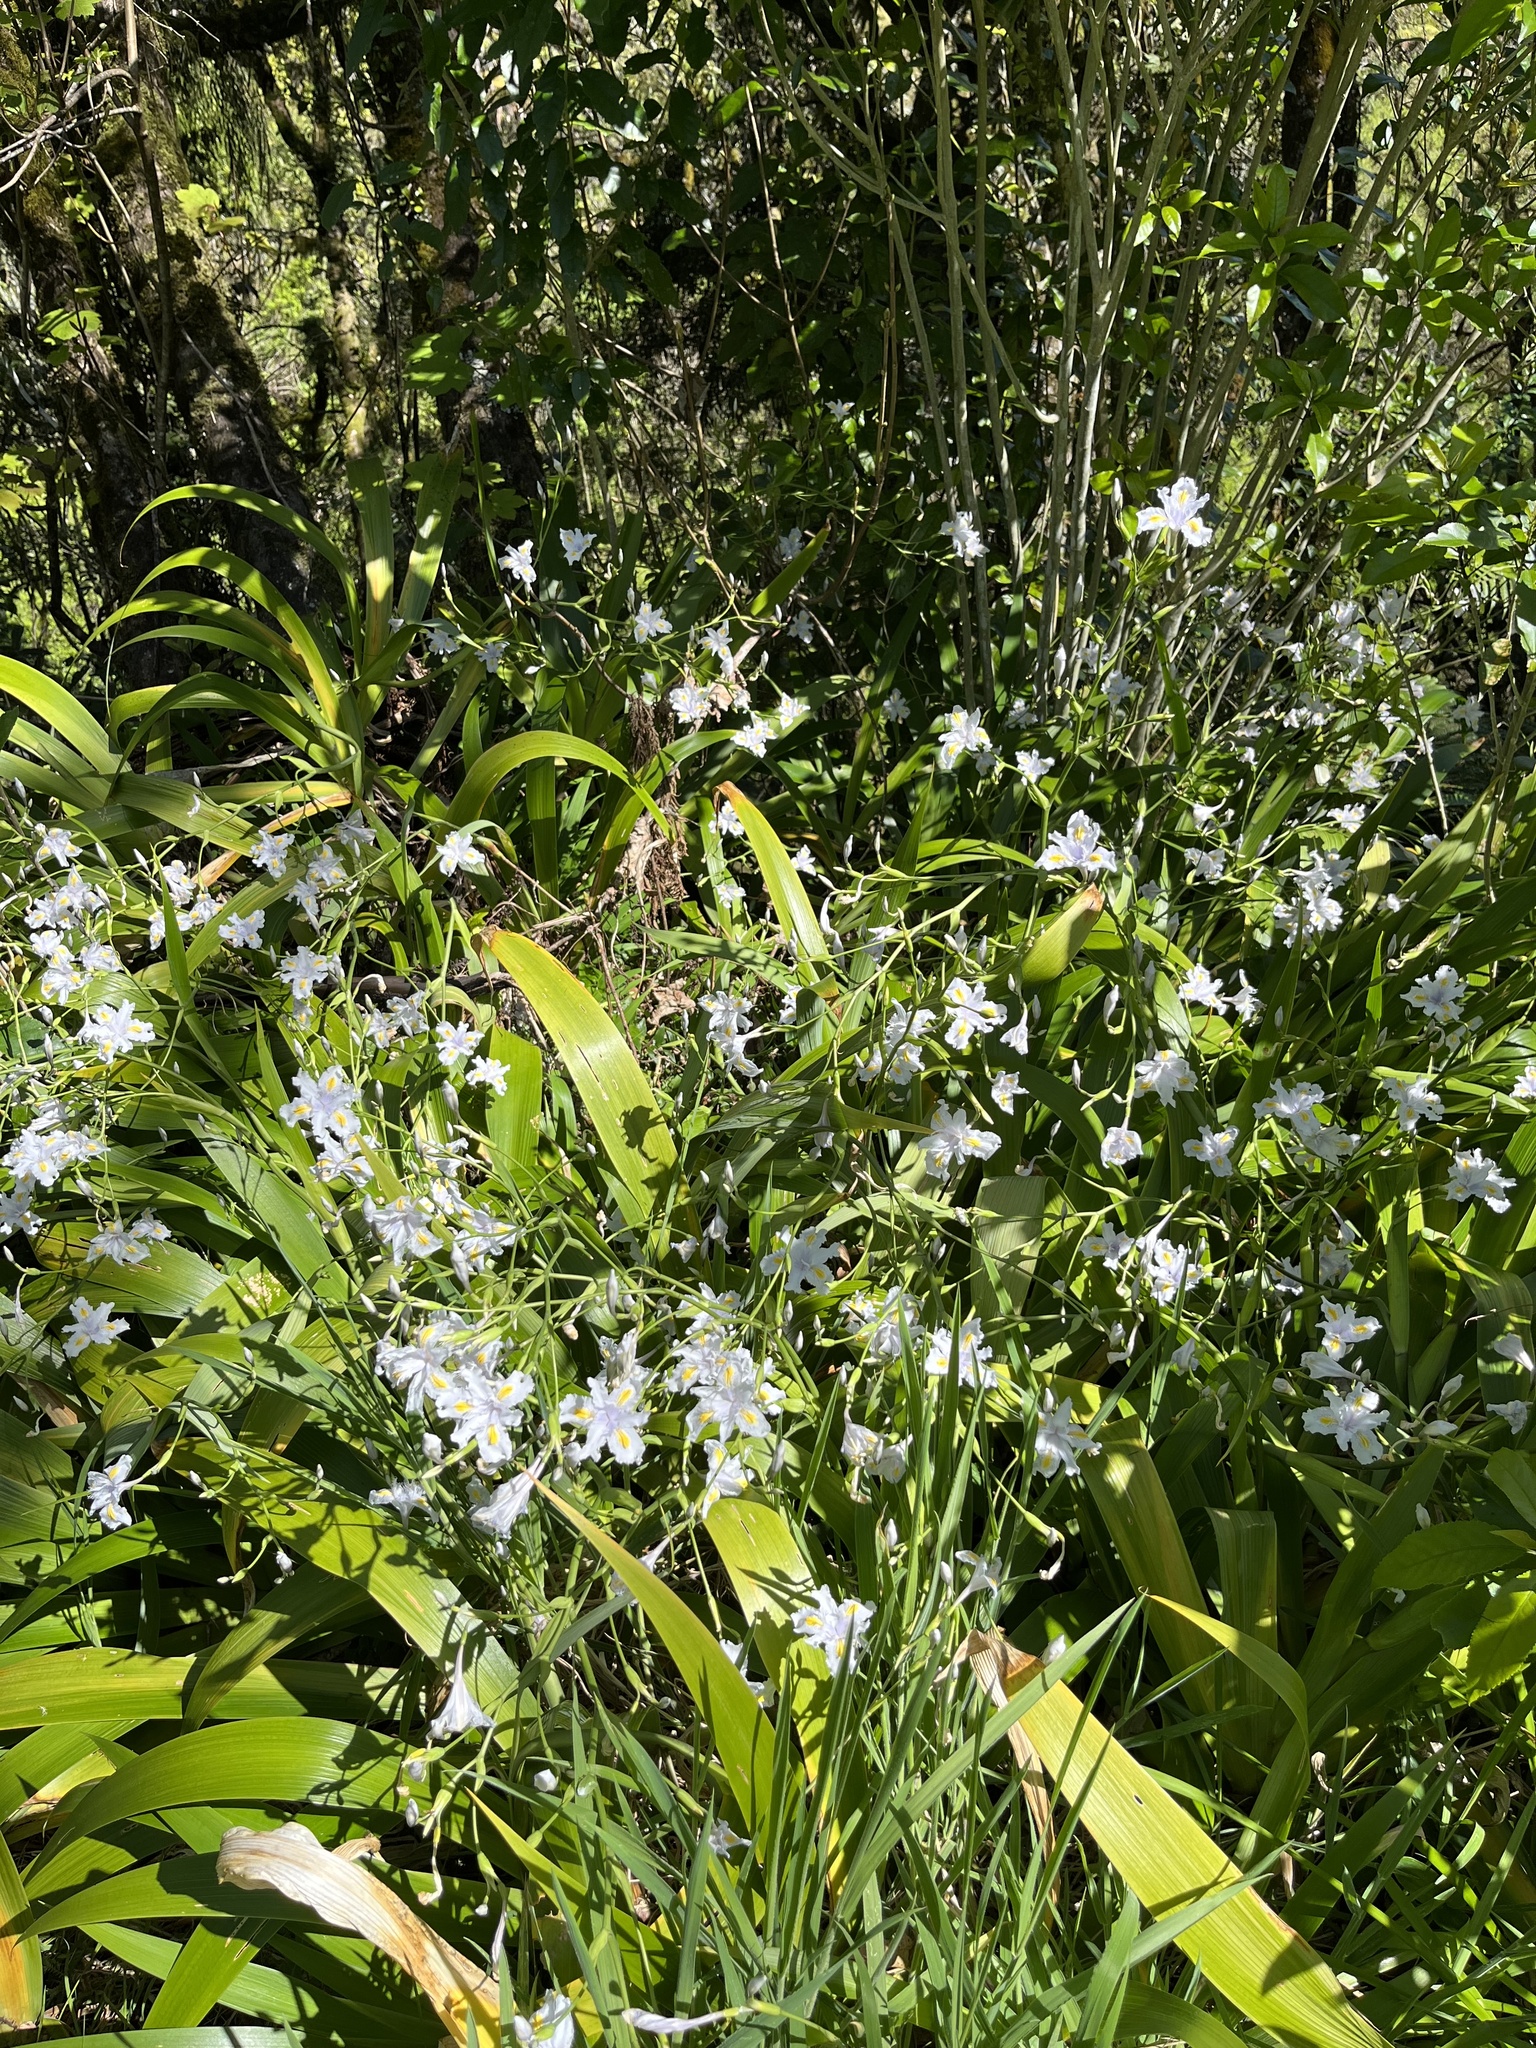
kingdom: Plantae
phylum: Tracheophyta
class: Liliopsida
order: Asparagales
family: Iridaceae
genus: Iris
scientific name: Iris japonica
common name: Butterfly-flower
